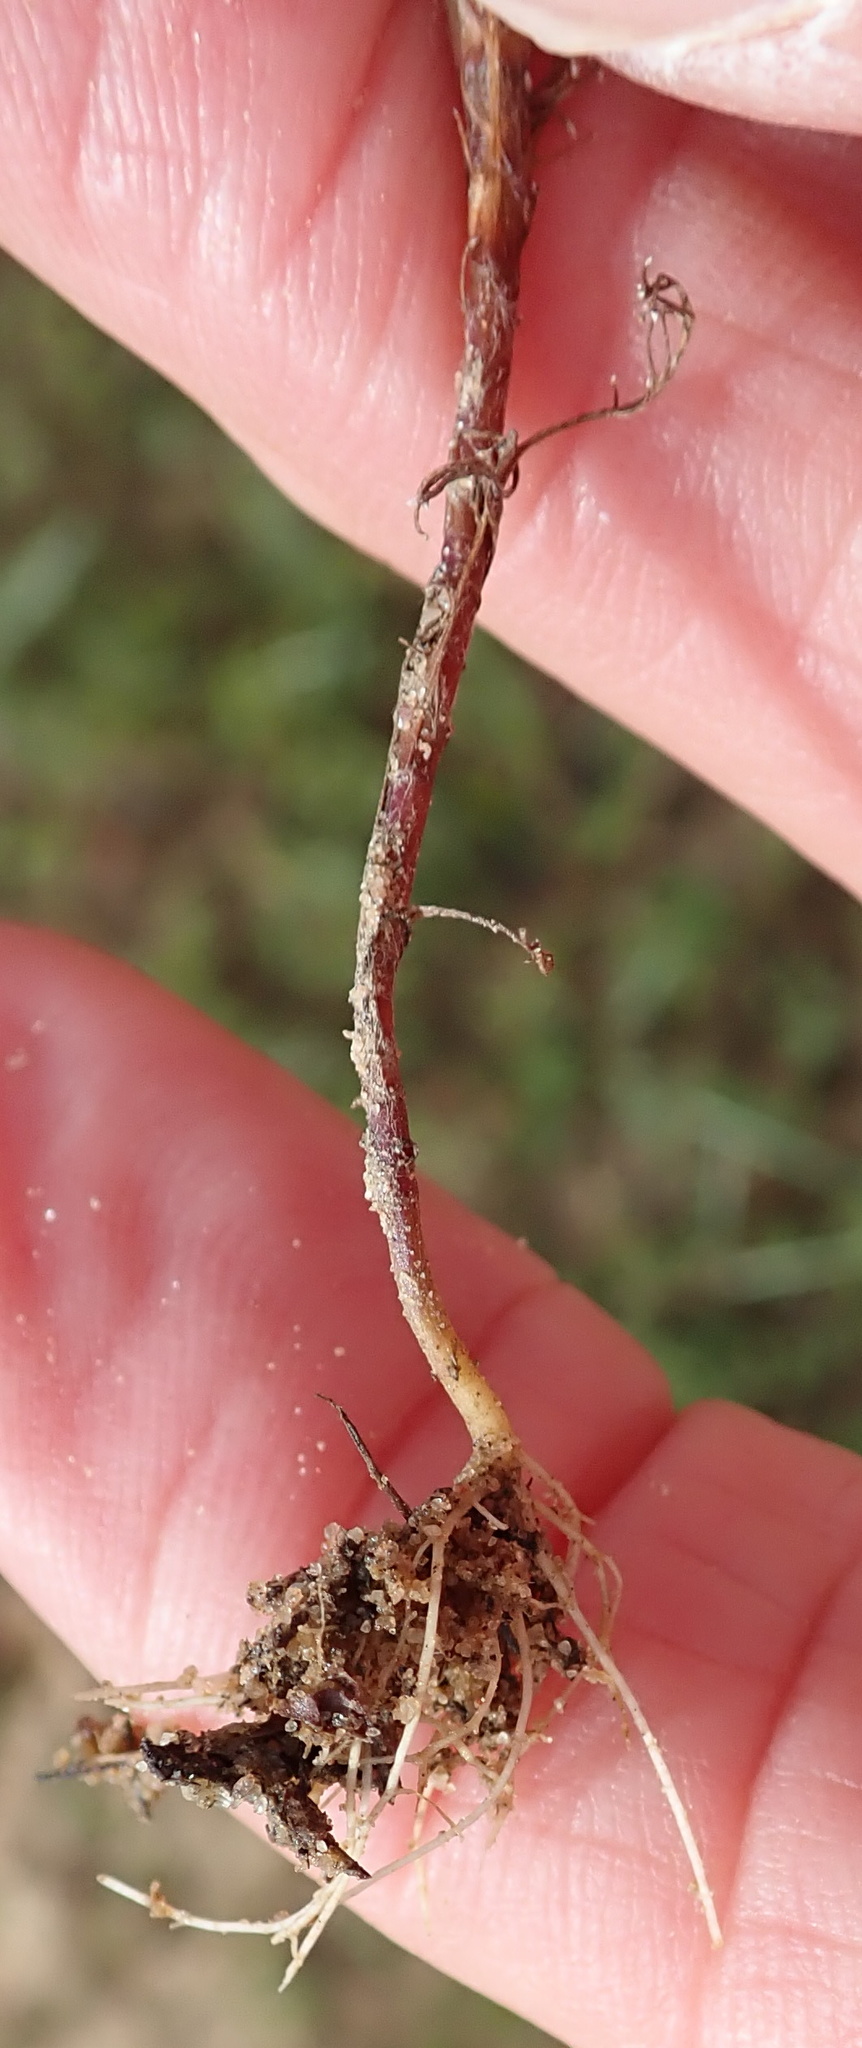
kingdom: Plantae
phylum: Tracheophyta
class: Magnoliopsida
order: Asterales
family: Asteraceae
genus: Cotula
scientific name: Cotula nudicaulis
